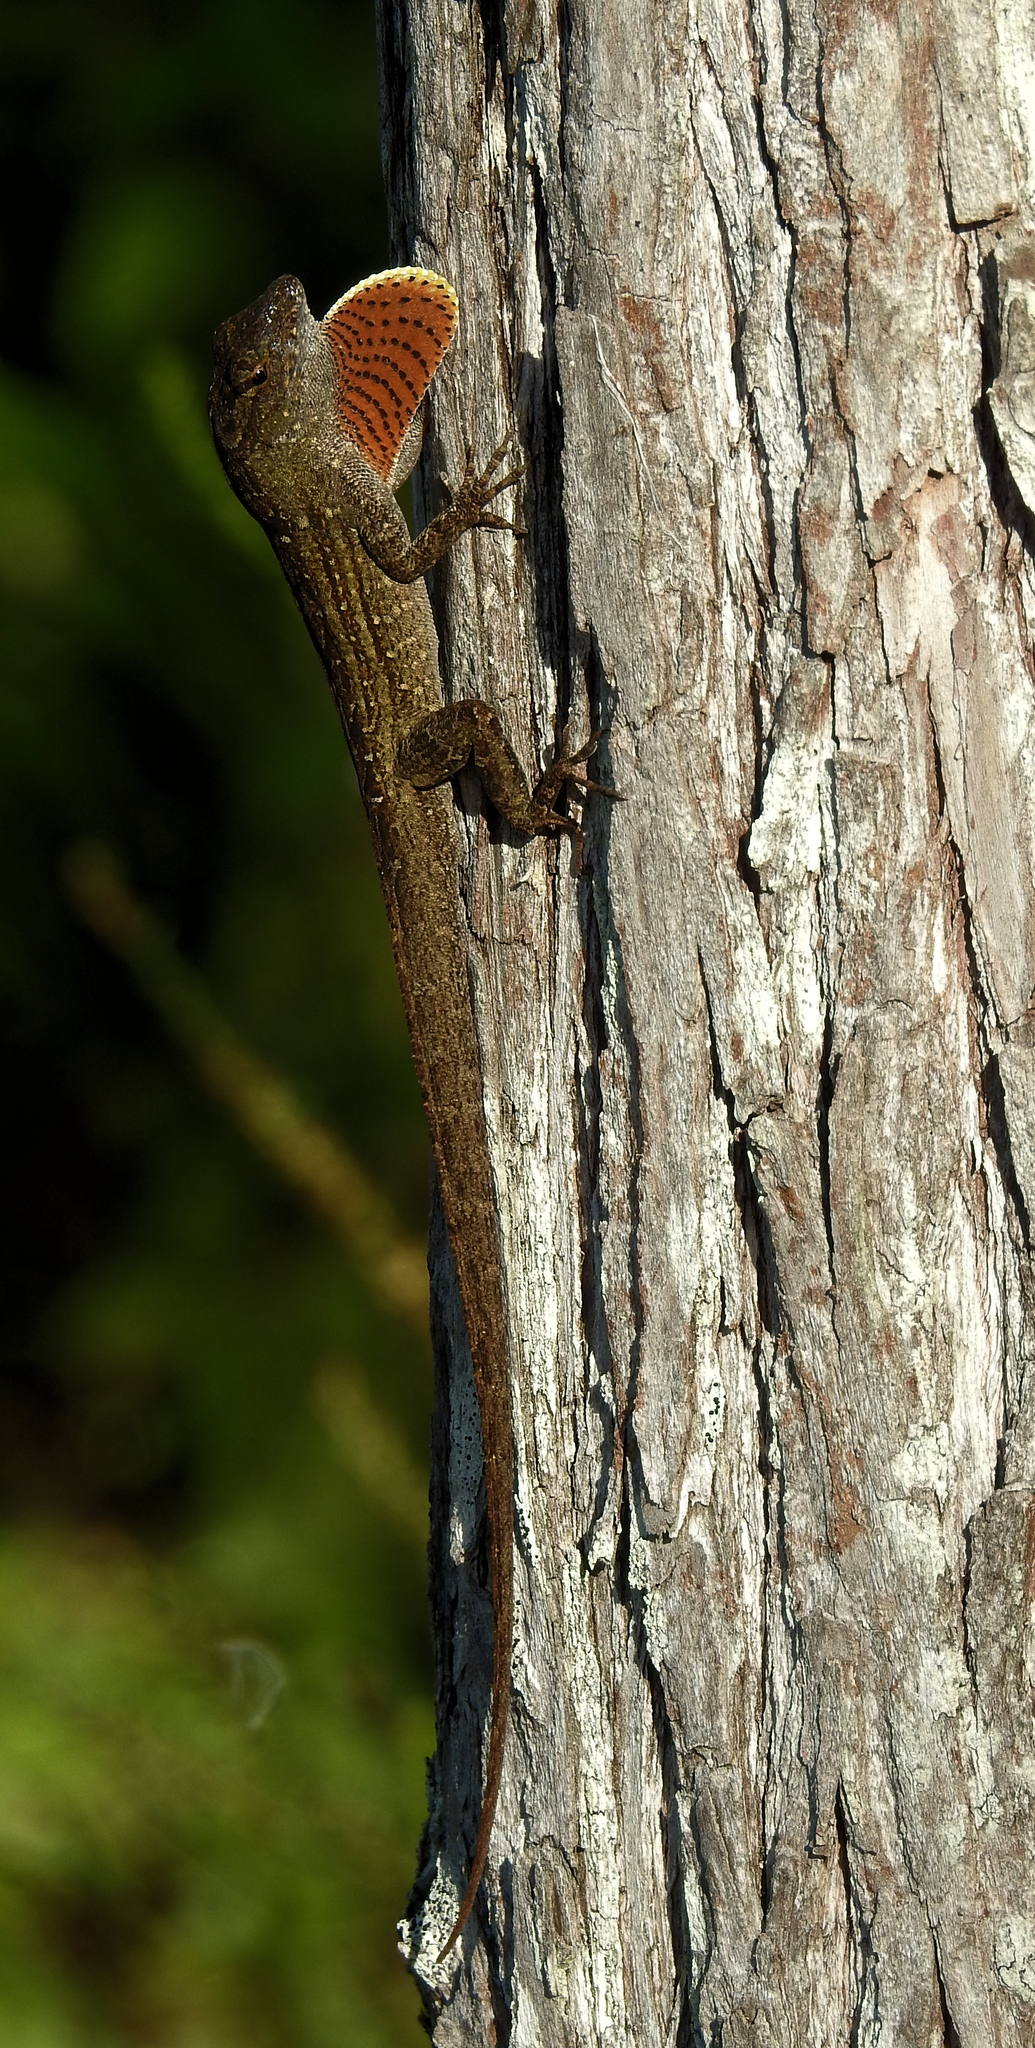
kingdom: Animalia
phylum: Chordata
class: Squamata
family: Dactyloidae
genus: Anolis
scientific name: Anolis sagrei
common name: Brown anole
